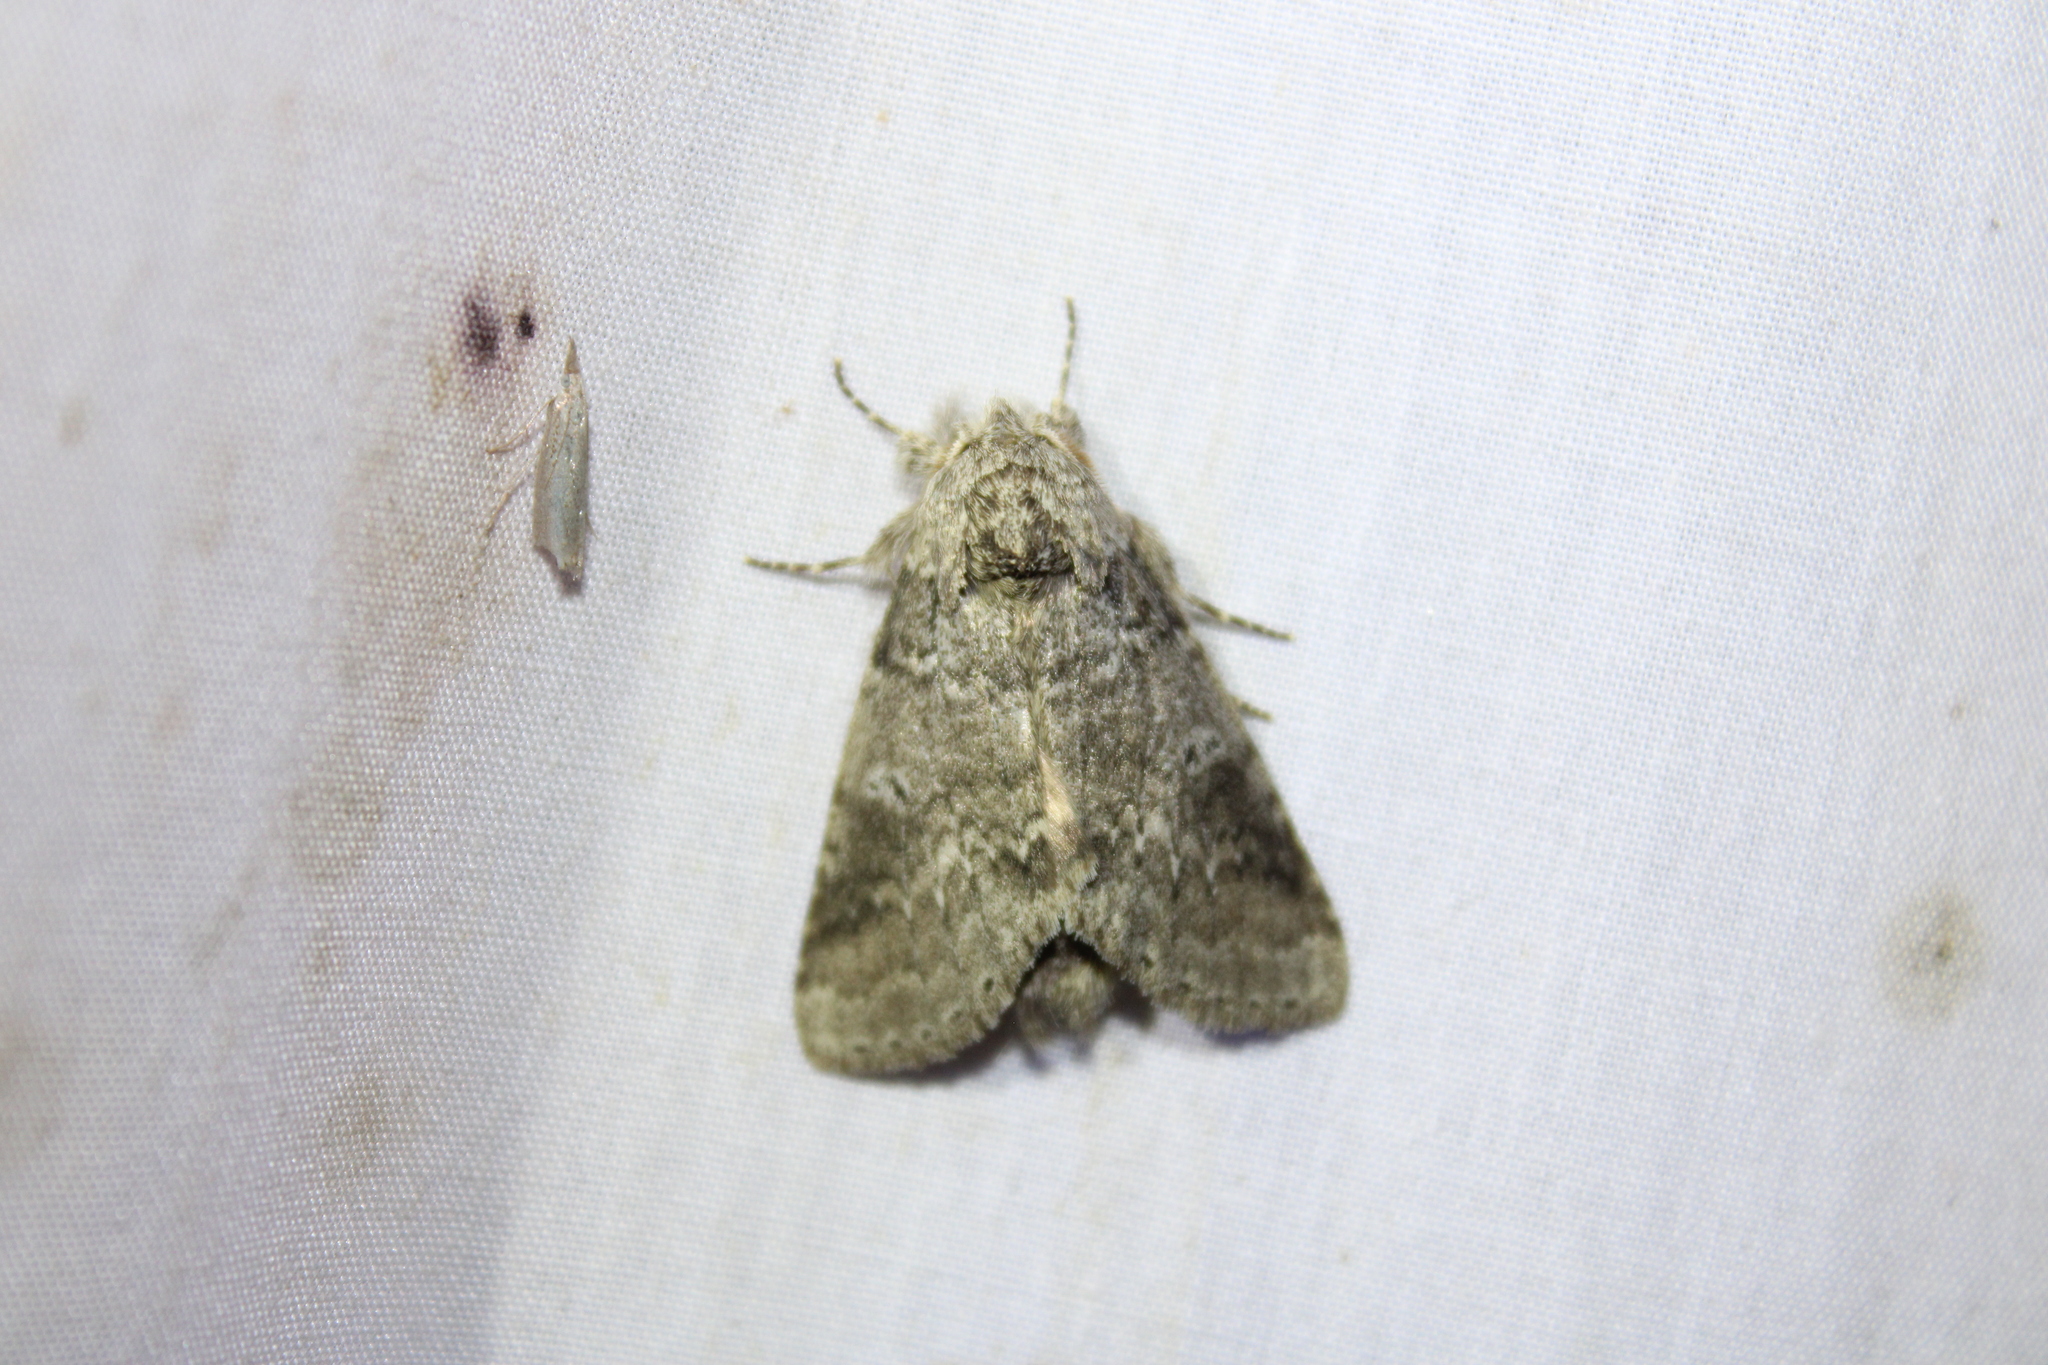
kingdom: Animalia
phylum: Arthropoda
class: Insecta
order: Lepidoptera
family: Notodontidae
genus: Lochmaeus
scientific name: Lochmaeus manteo
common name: Variable oakleaf caterpillar moth
